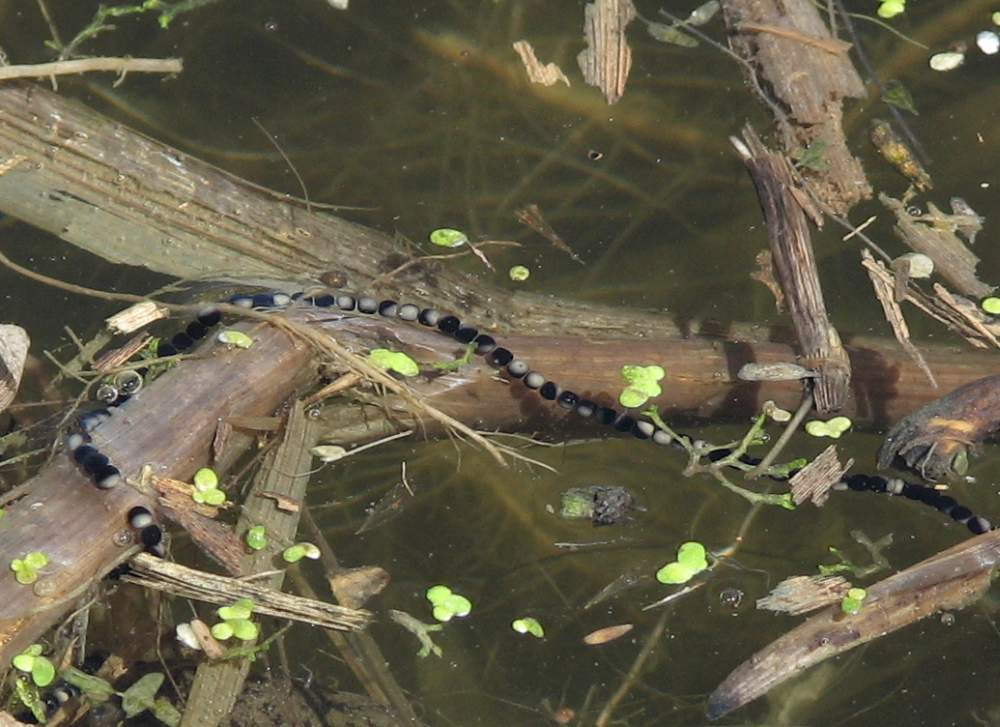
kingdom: Animalia
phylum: Chordata
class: Amphibia
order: Anura
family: Bufonidae
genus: Anaxyrus
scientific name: Anaxyrus americanus
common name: American toad
